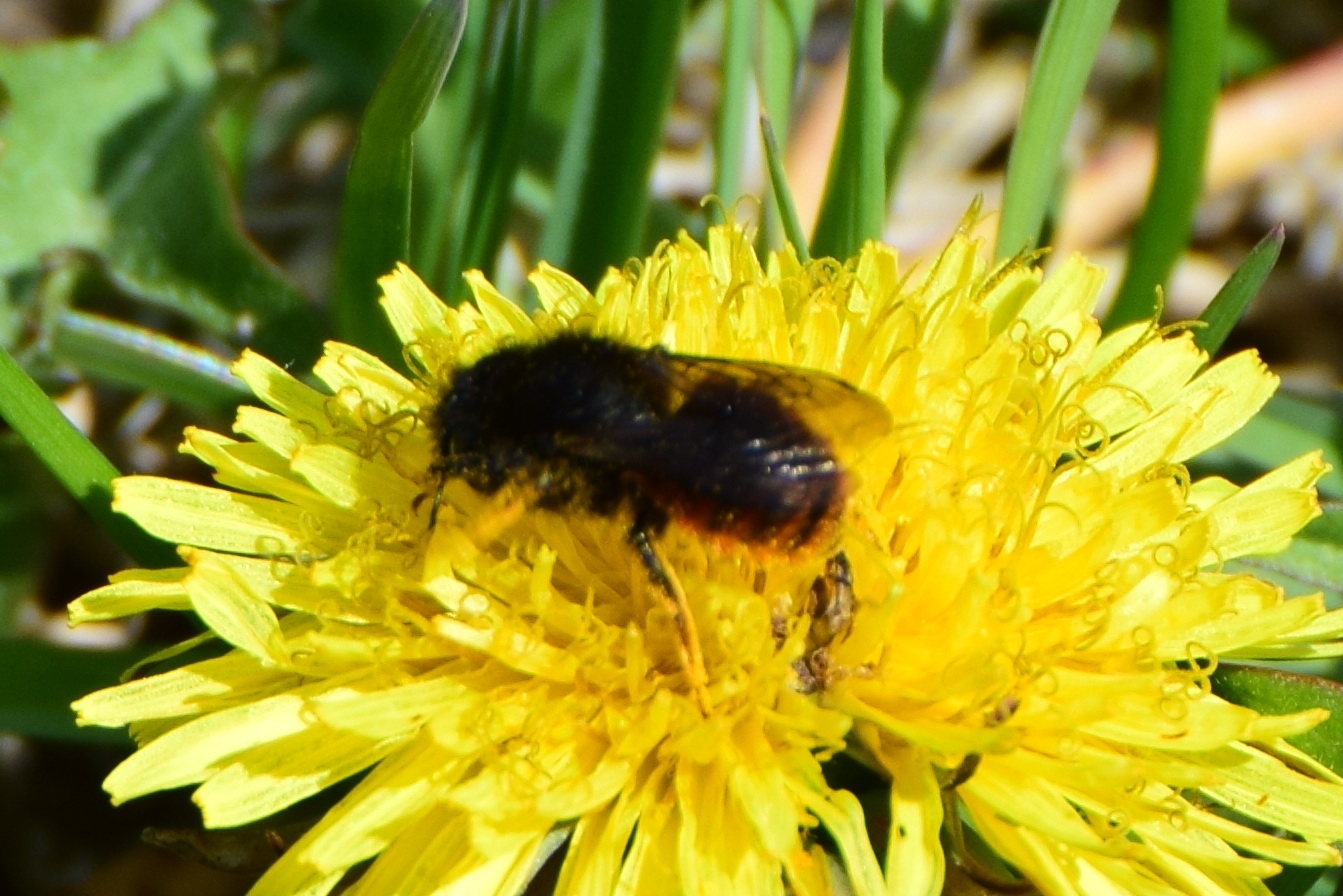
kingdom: Animalia
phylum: Arthropoda
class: Insecta
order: Hymenoptera
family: Megachilidae
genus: Osmia
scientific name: Osmia bicolor
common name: Red-tailed mason bee
